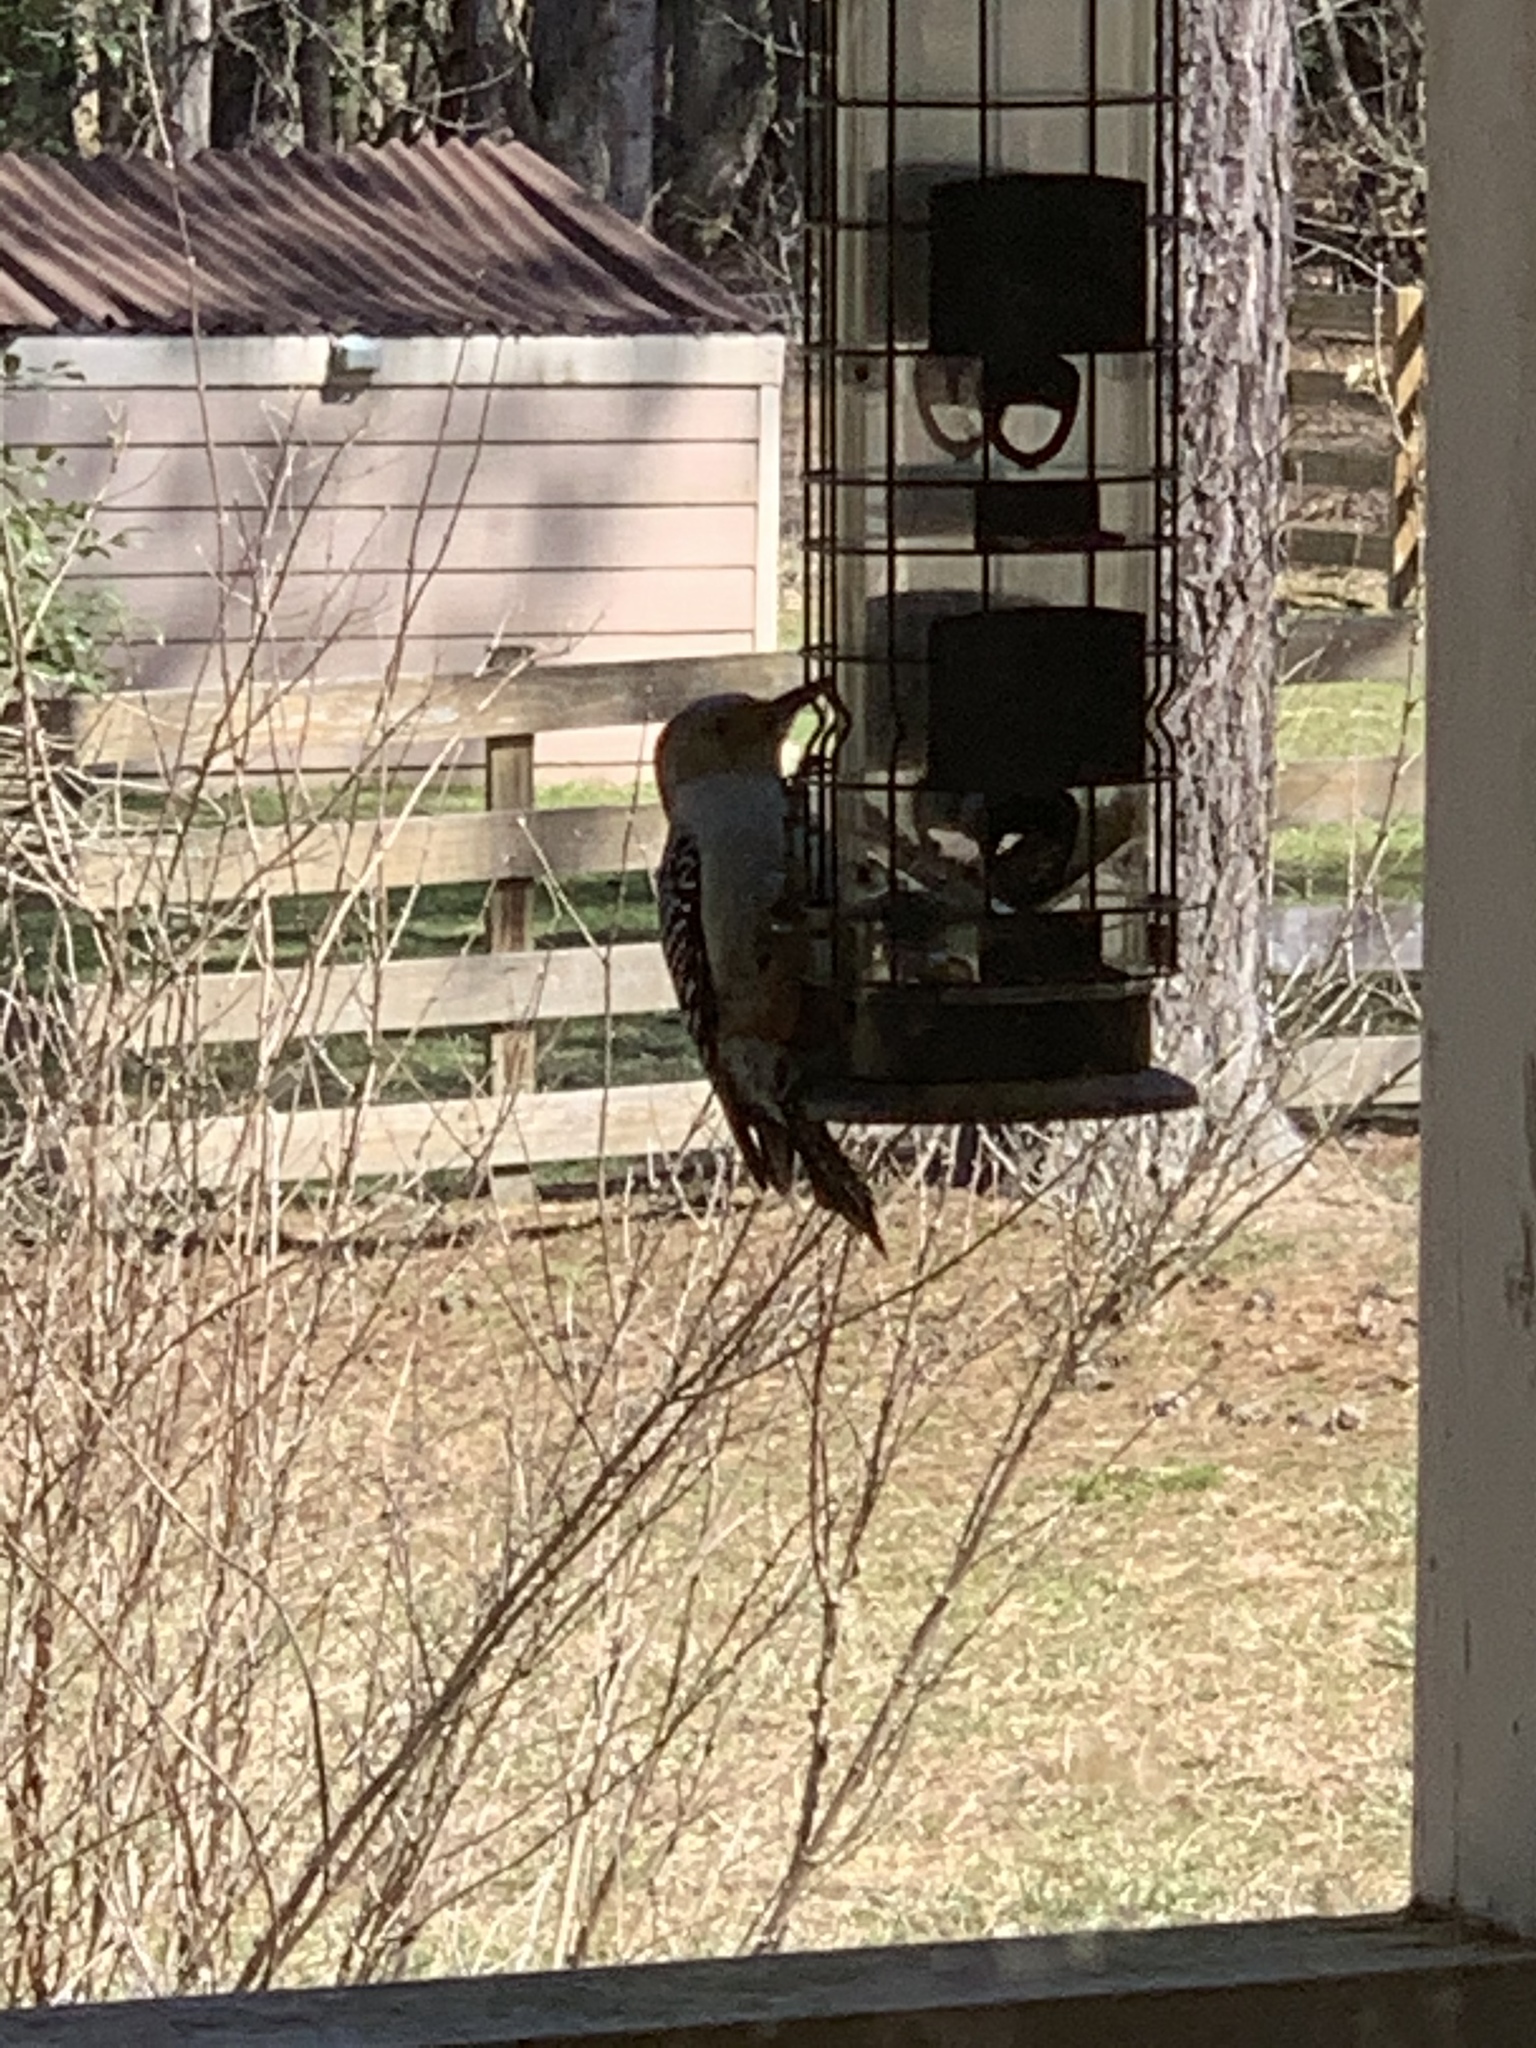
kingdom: Animalia
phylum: Chordata
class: Aves
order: Piciformes
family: Picidae
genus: Melanerpes
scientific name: Melanerpes carolinus
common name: Red-bellied woodpecker
